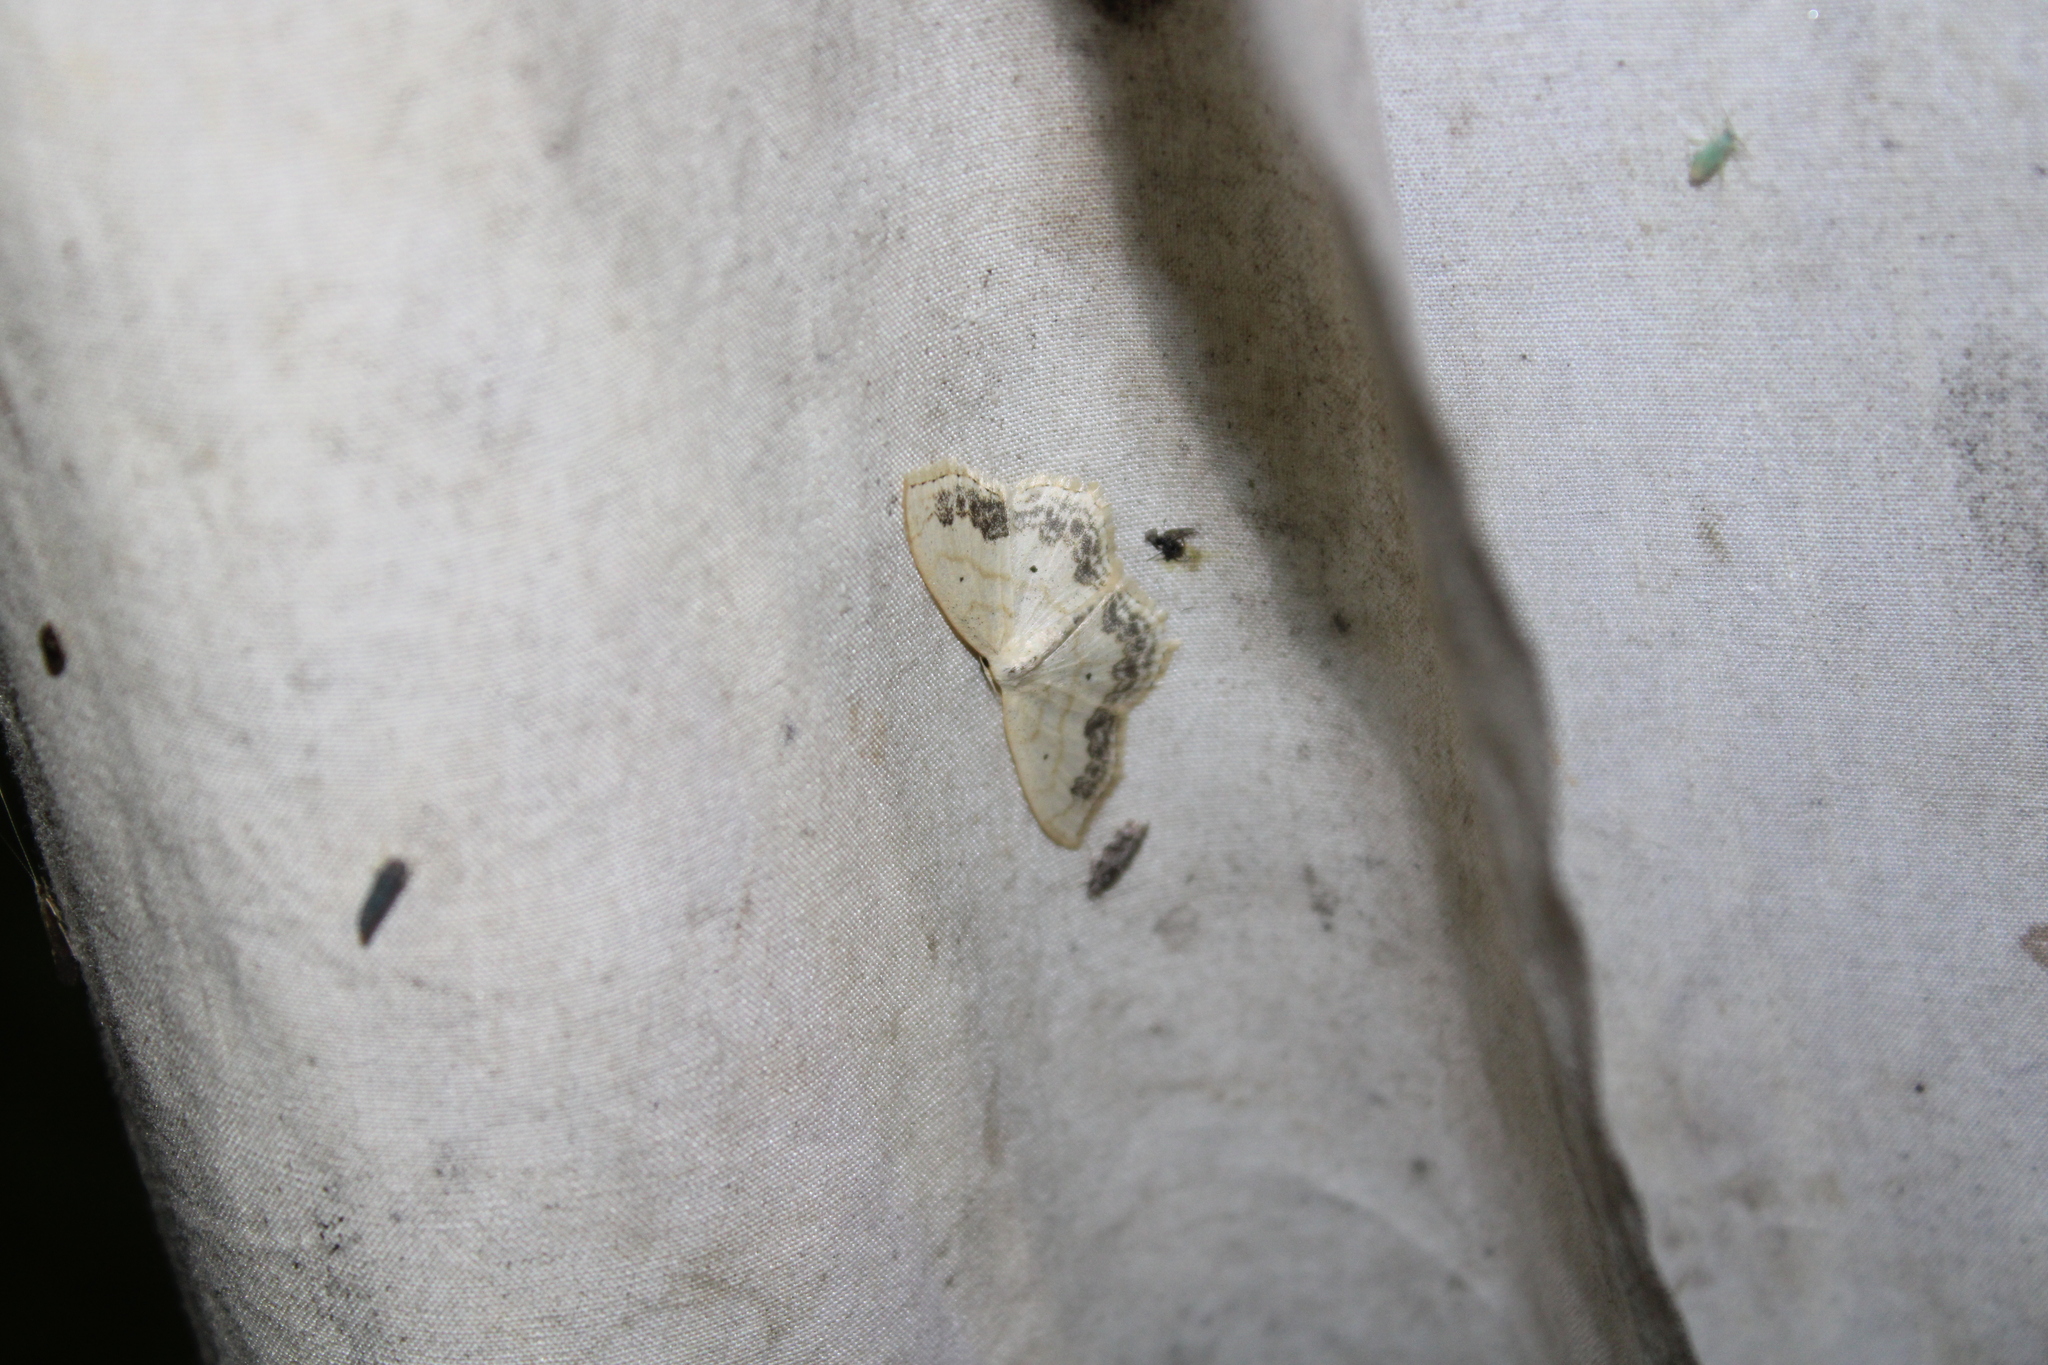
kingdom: Animalia
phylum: Arthropoda
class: Insecta
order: Lepidoptera
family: Geometridae
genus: Scopula
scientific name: Scopula limboundata
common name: Large lace border
